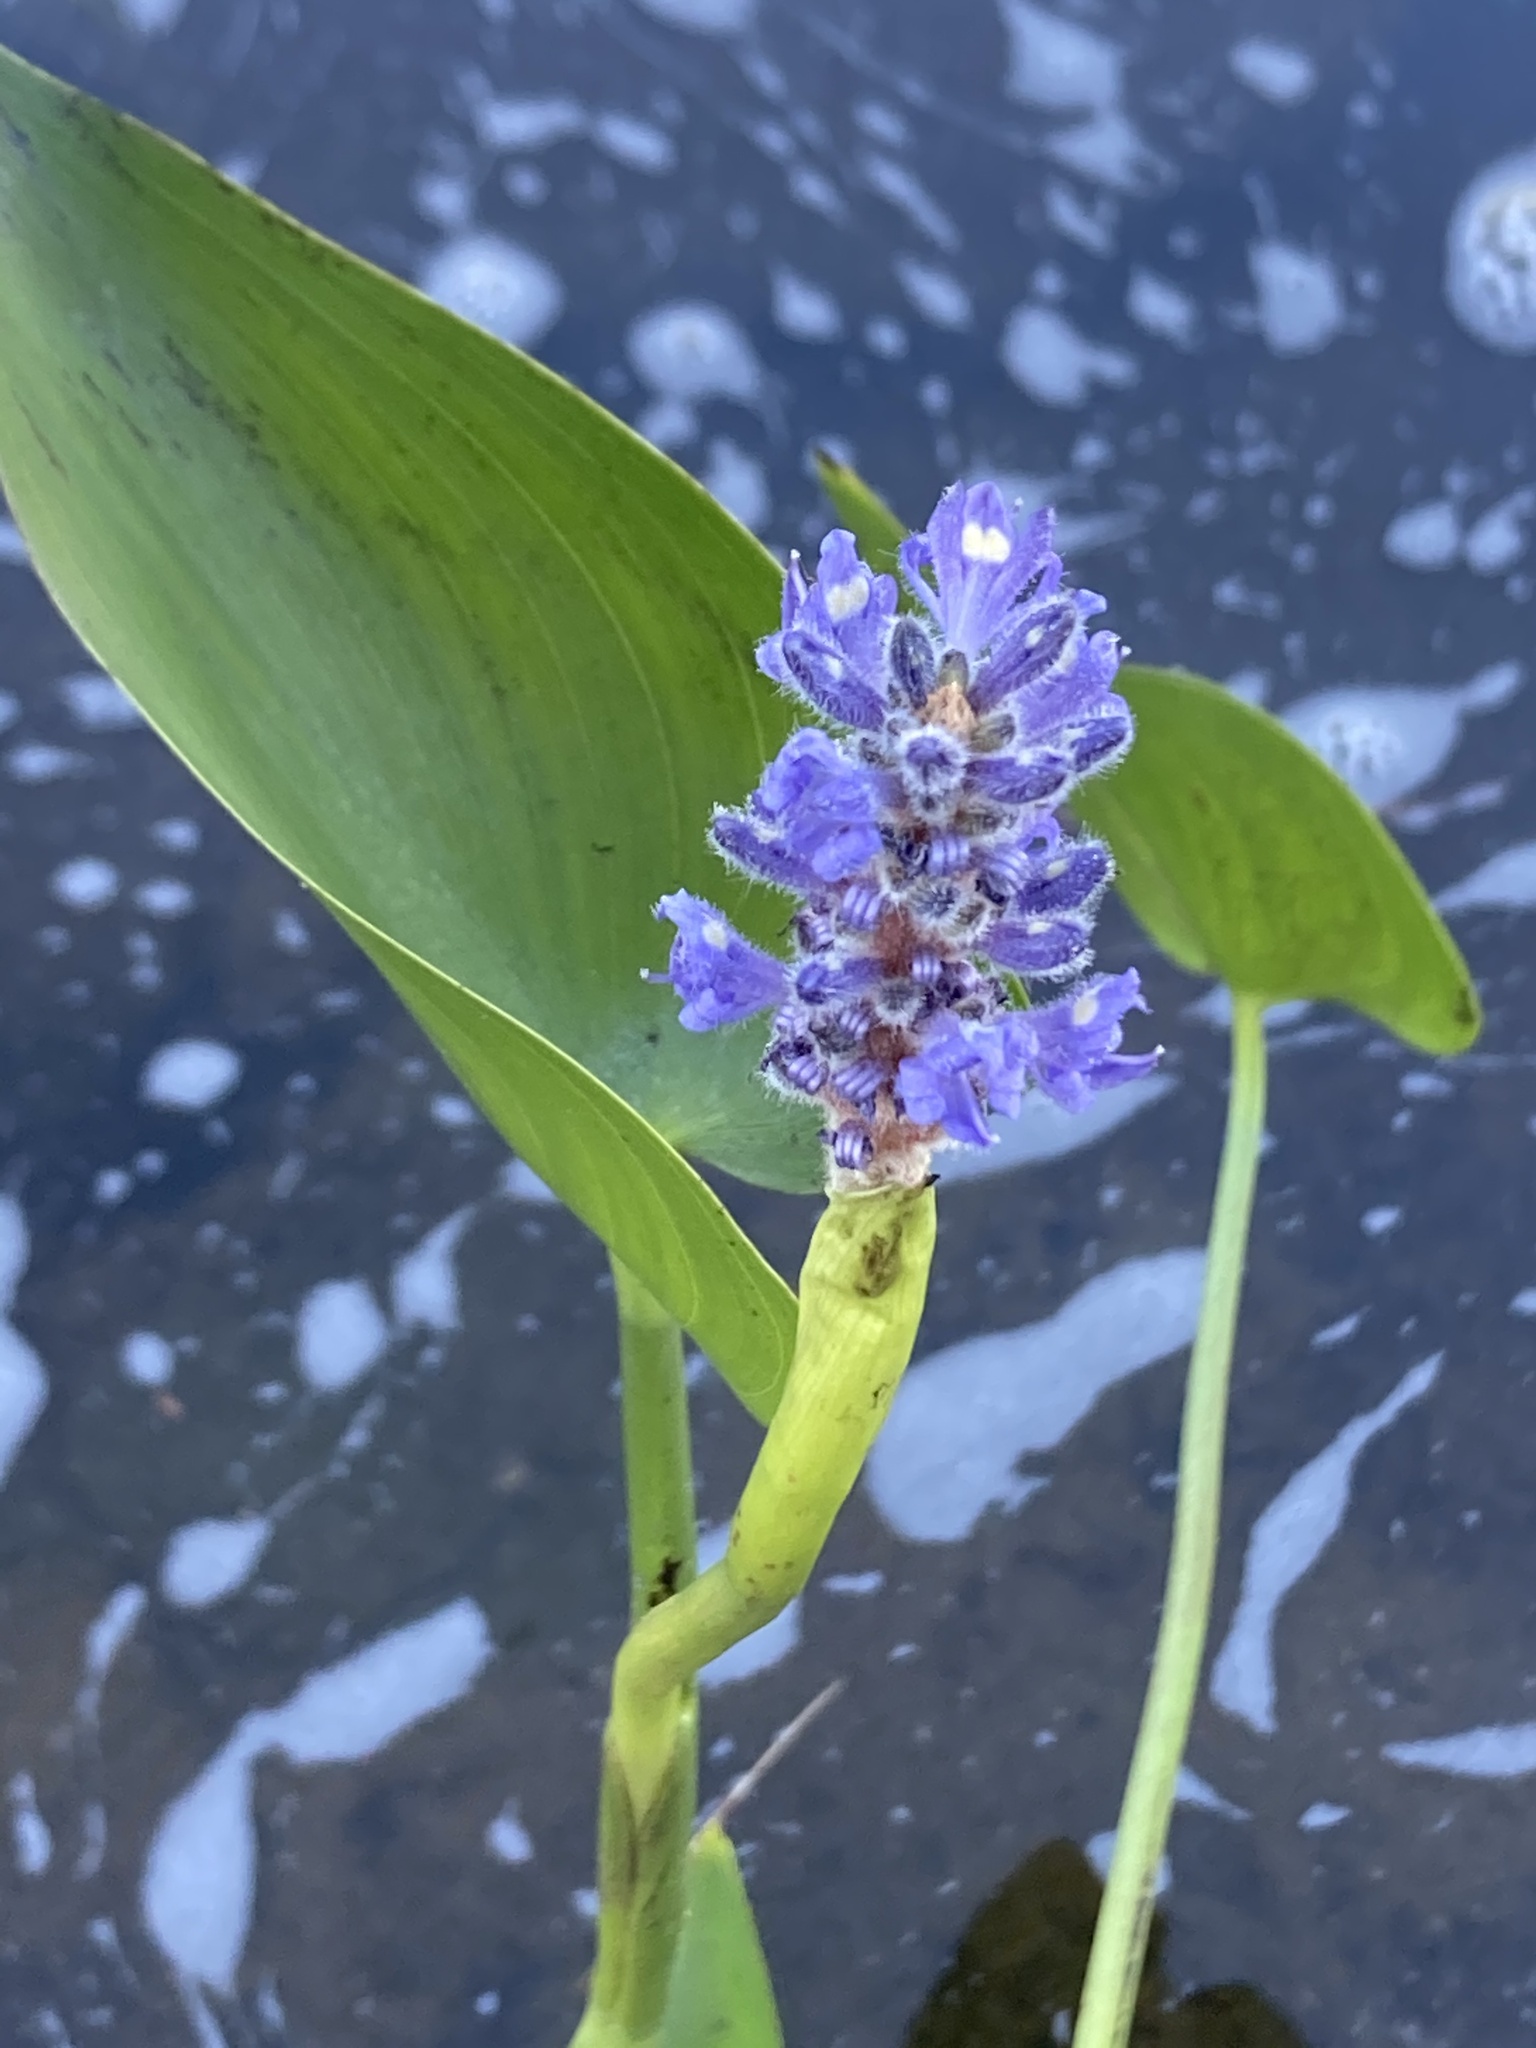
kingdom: Plantae
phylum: Tracheophyta
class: Liliopsida
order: Commelinales
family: Pontederiaceae
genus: Pontederia
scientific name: Pontederia cordata
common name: Pickerelweed
